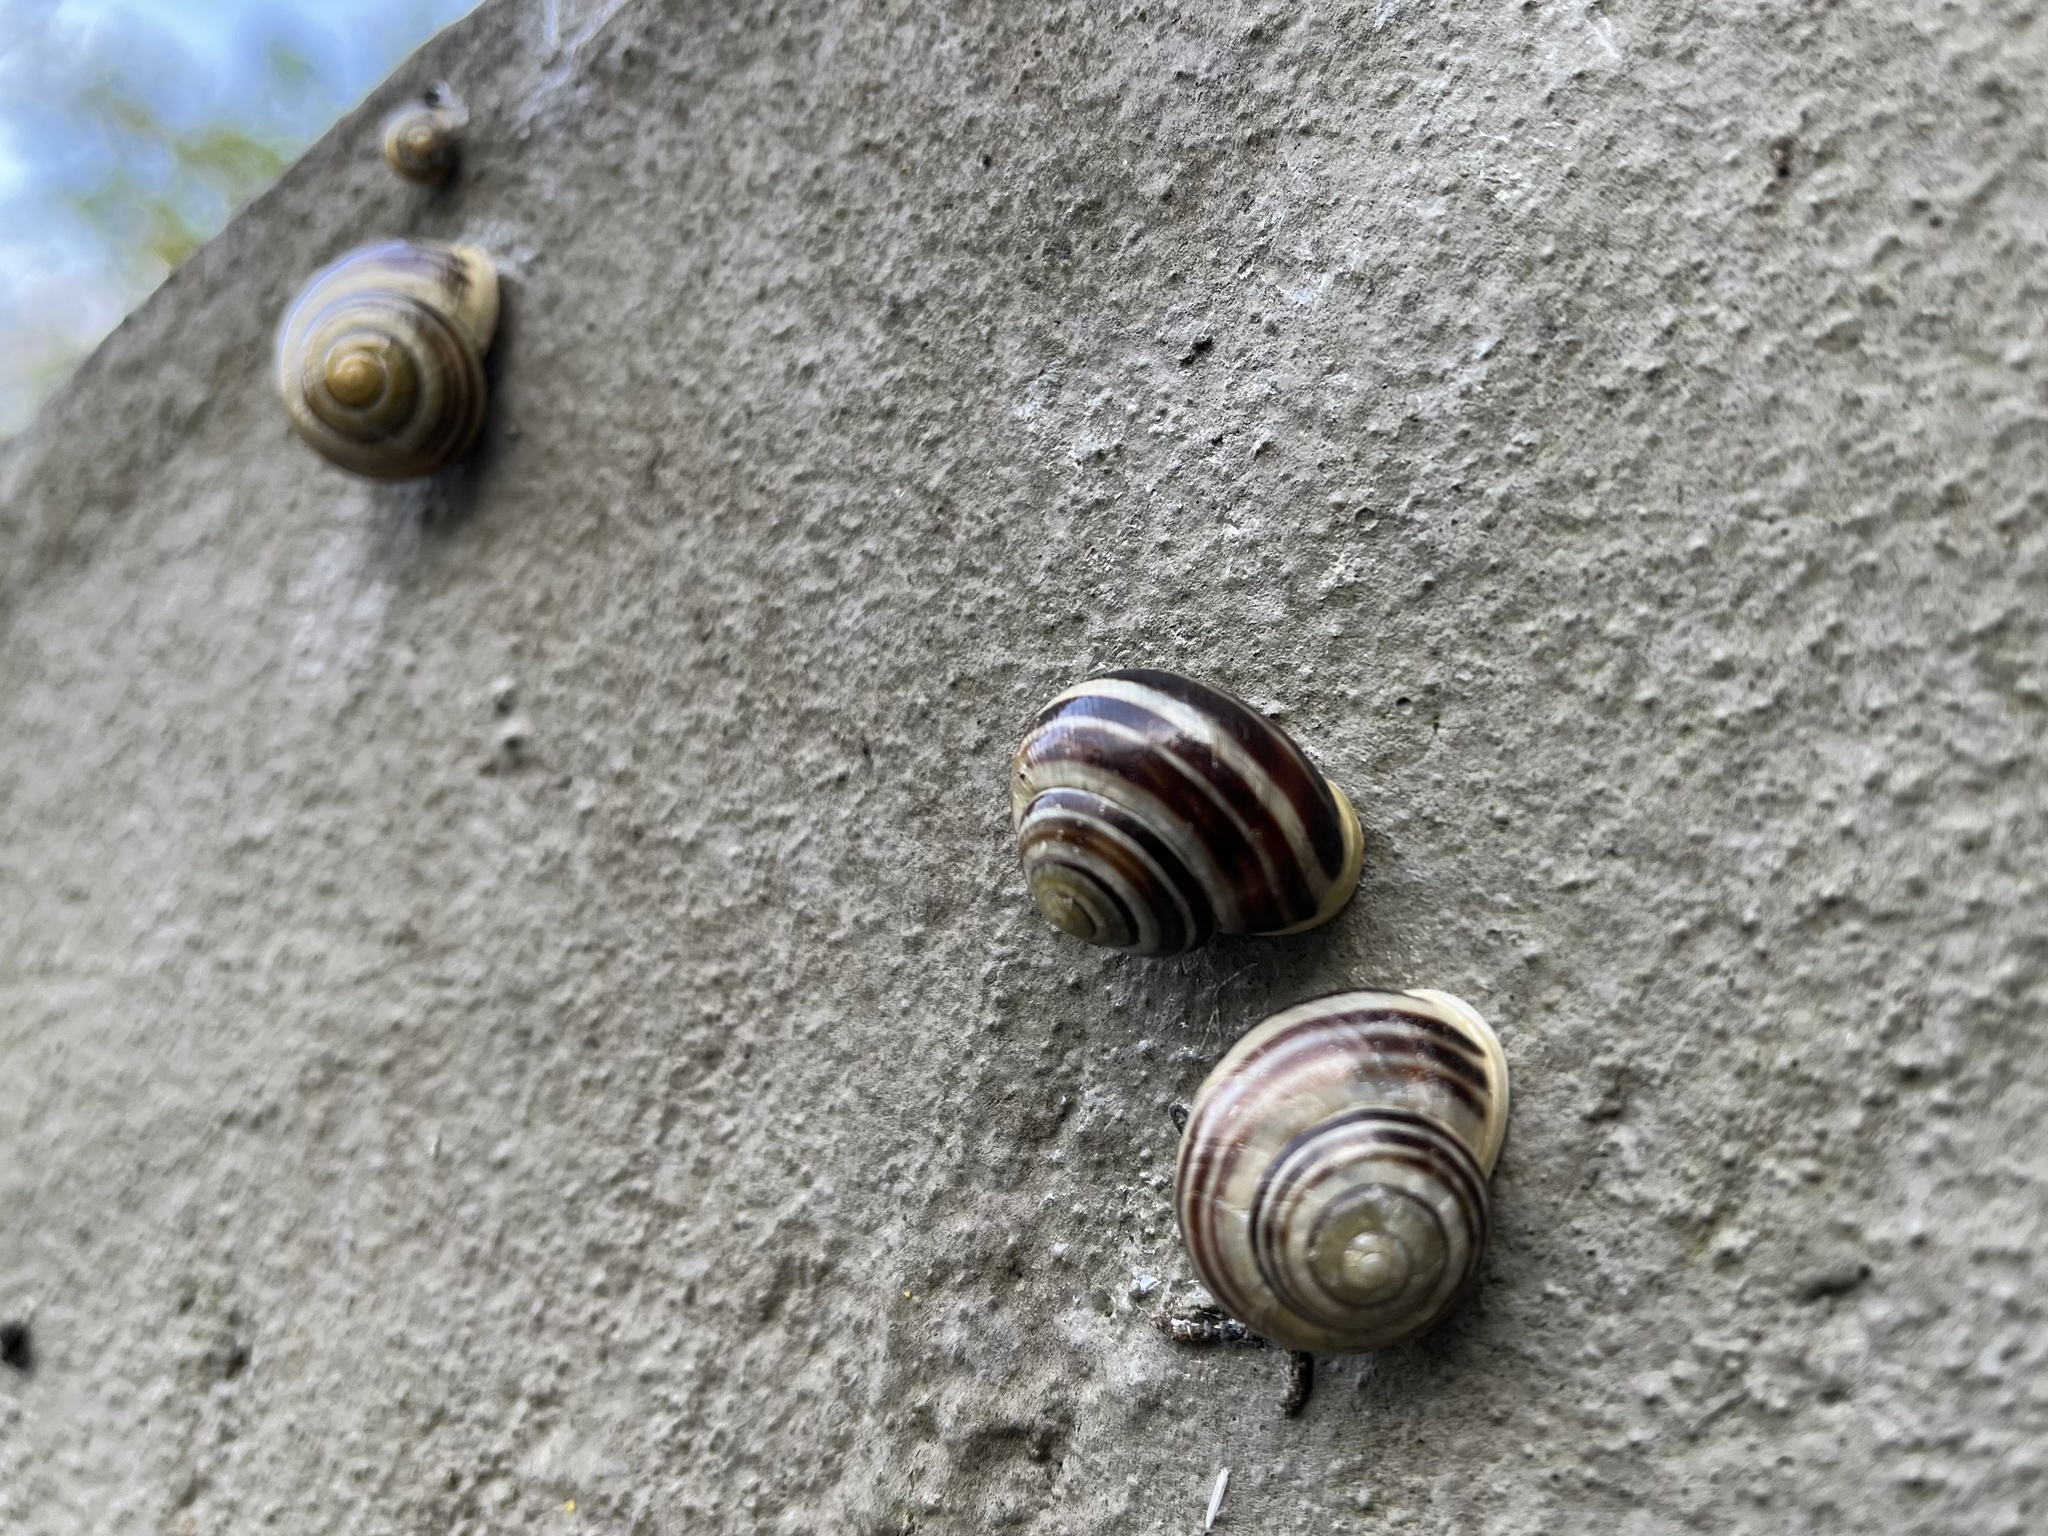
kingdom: Animalia
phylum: Mollusca
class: Gastropoda
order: Stylommatophora
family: Helicidae
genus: Cepaea
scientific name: Cepaea hortensis
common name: White-lip gardensnail
